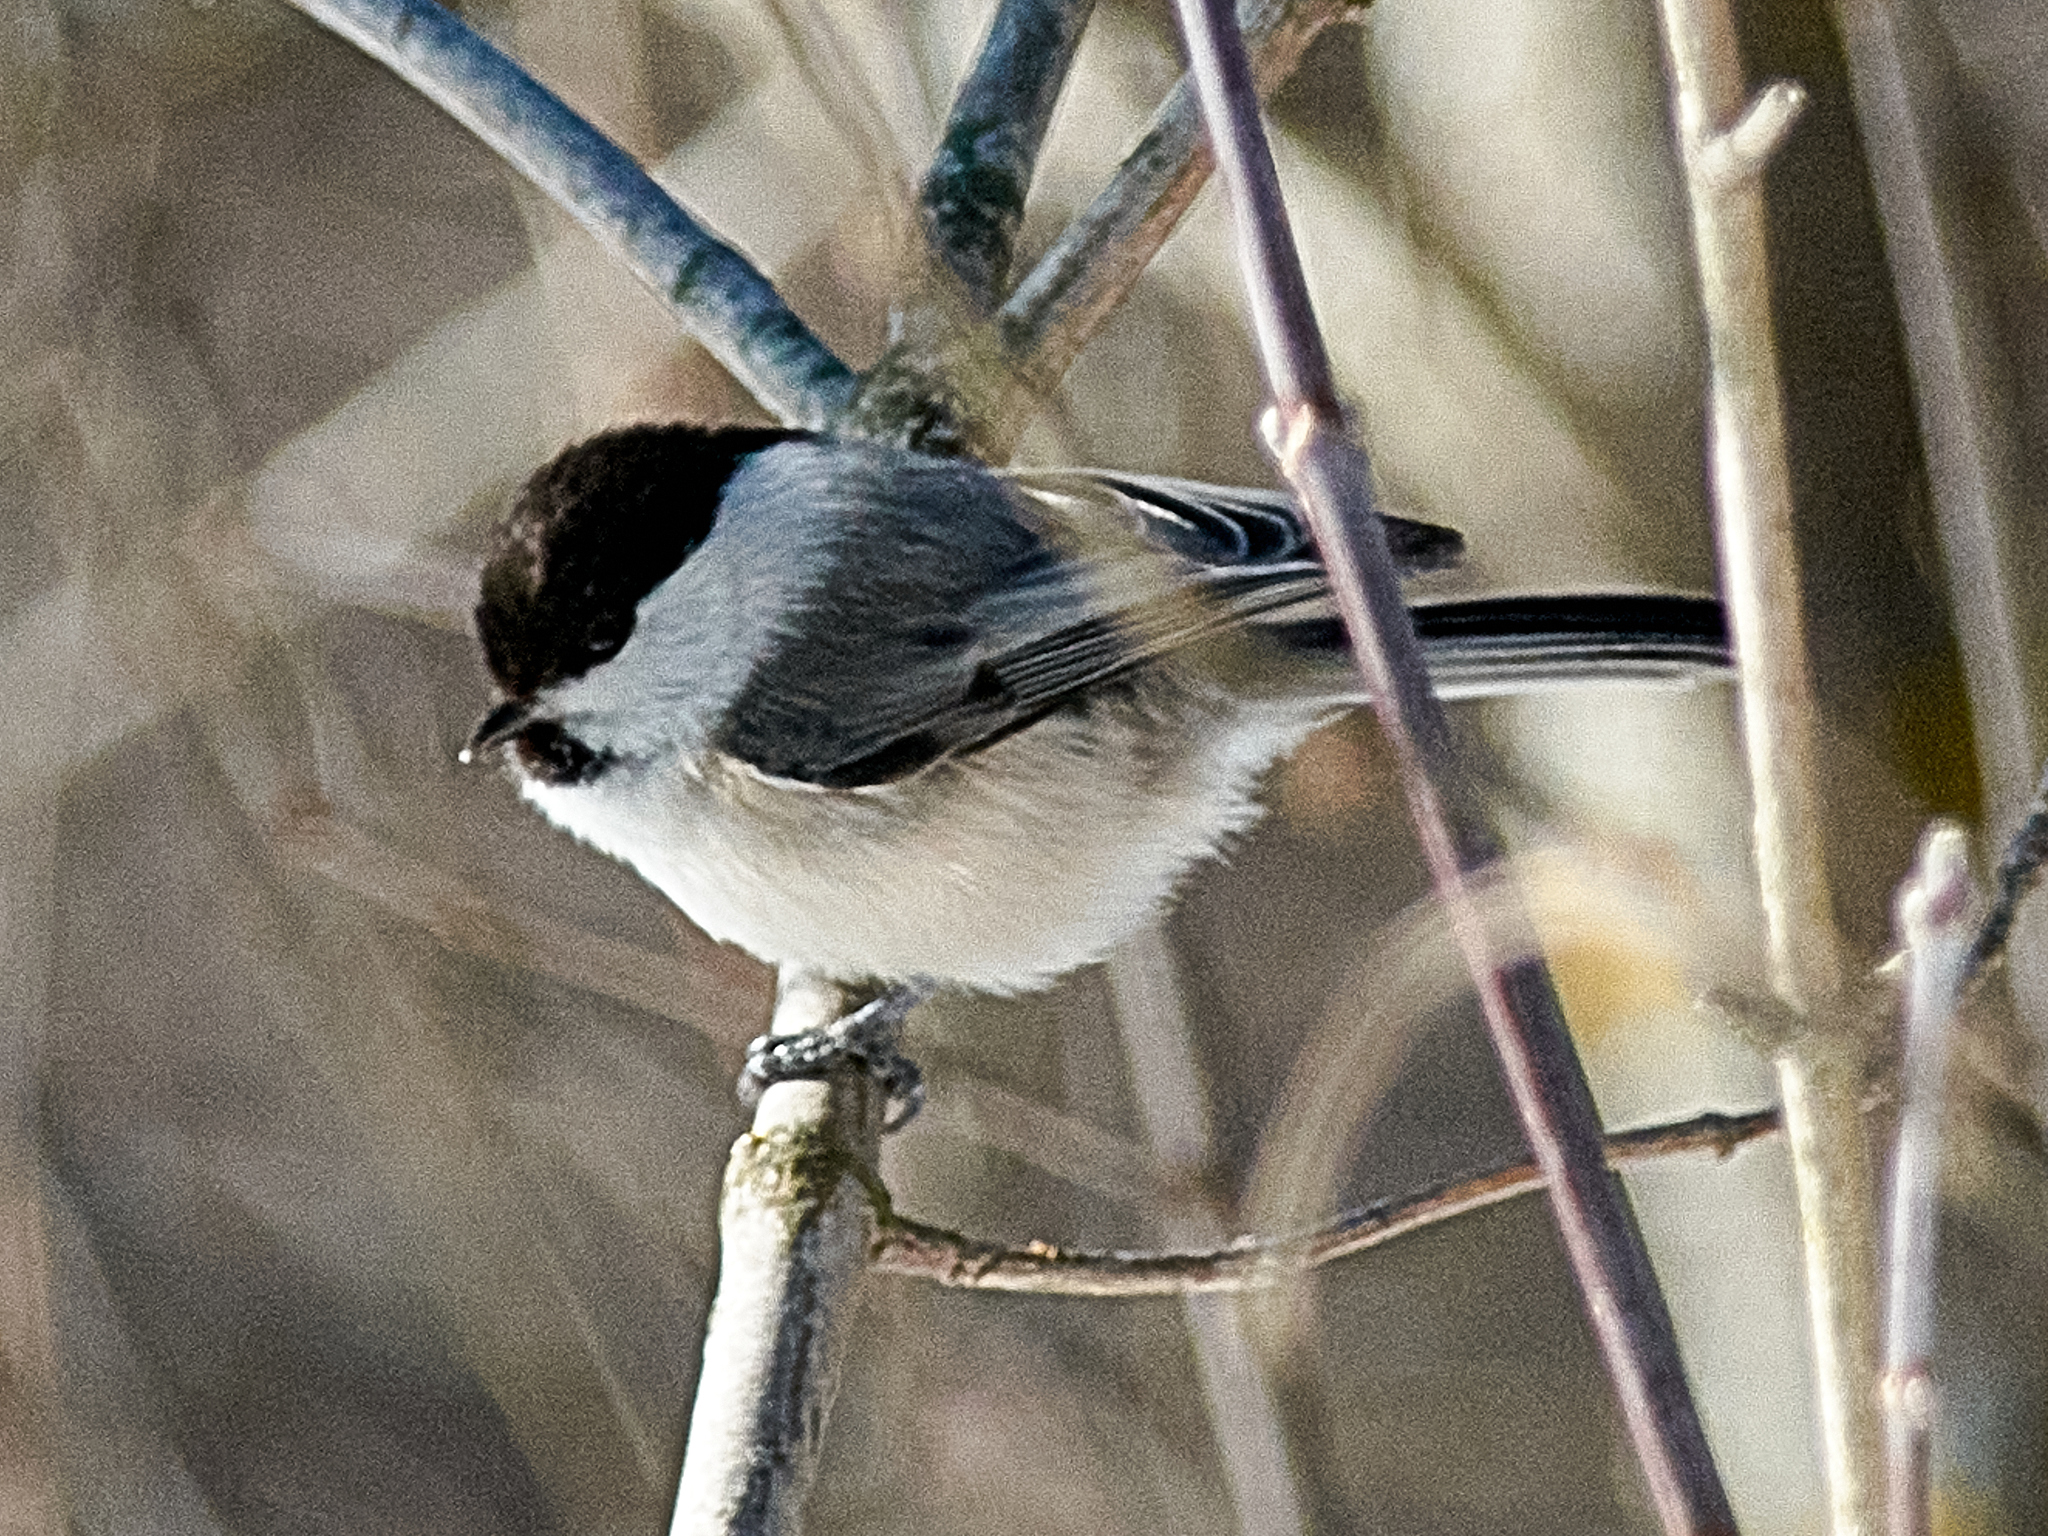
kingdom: Animalia
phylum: Chordata
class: Aves
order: Passeriformes
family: Paridae
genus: Poecile
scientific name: Poecile montanus
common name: Willow tit
